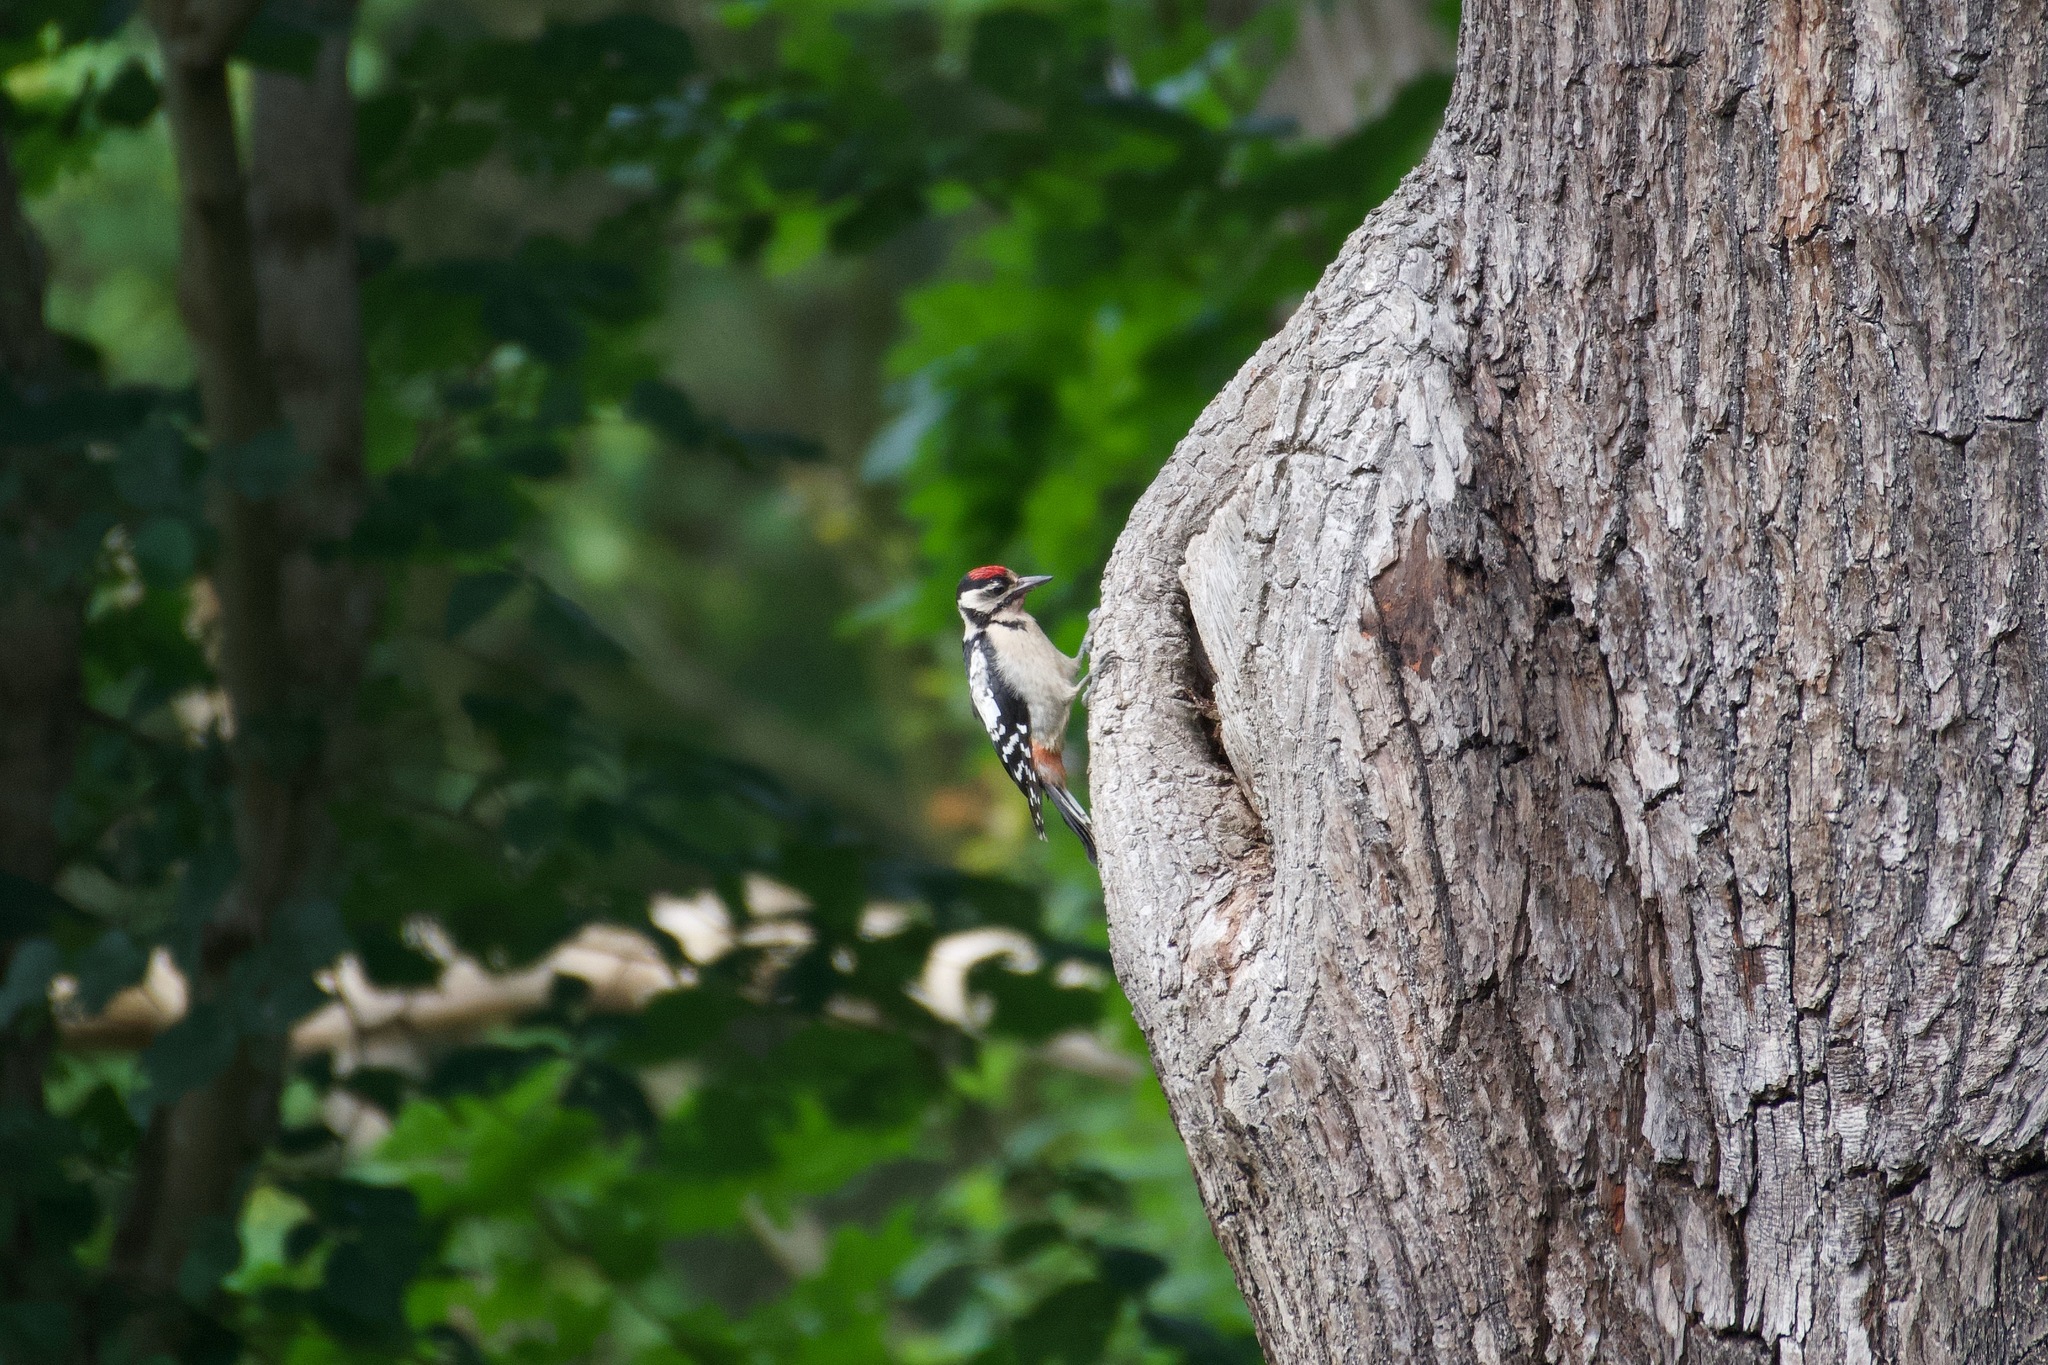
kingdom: Animalia
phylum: Chordata
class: Aves
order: Piciformes
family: Picidae
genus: Dendrocopos
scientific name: Dendrocopos major
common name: Great spotted woodpecker
